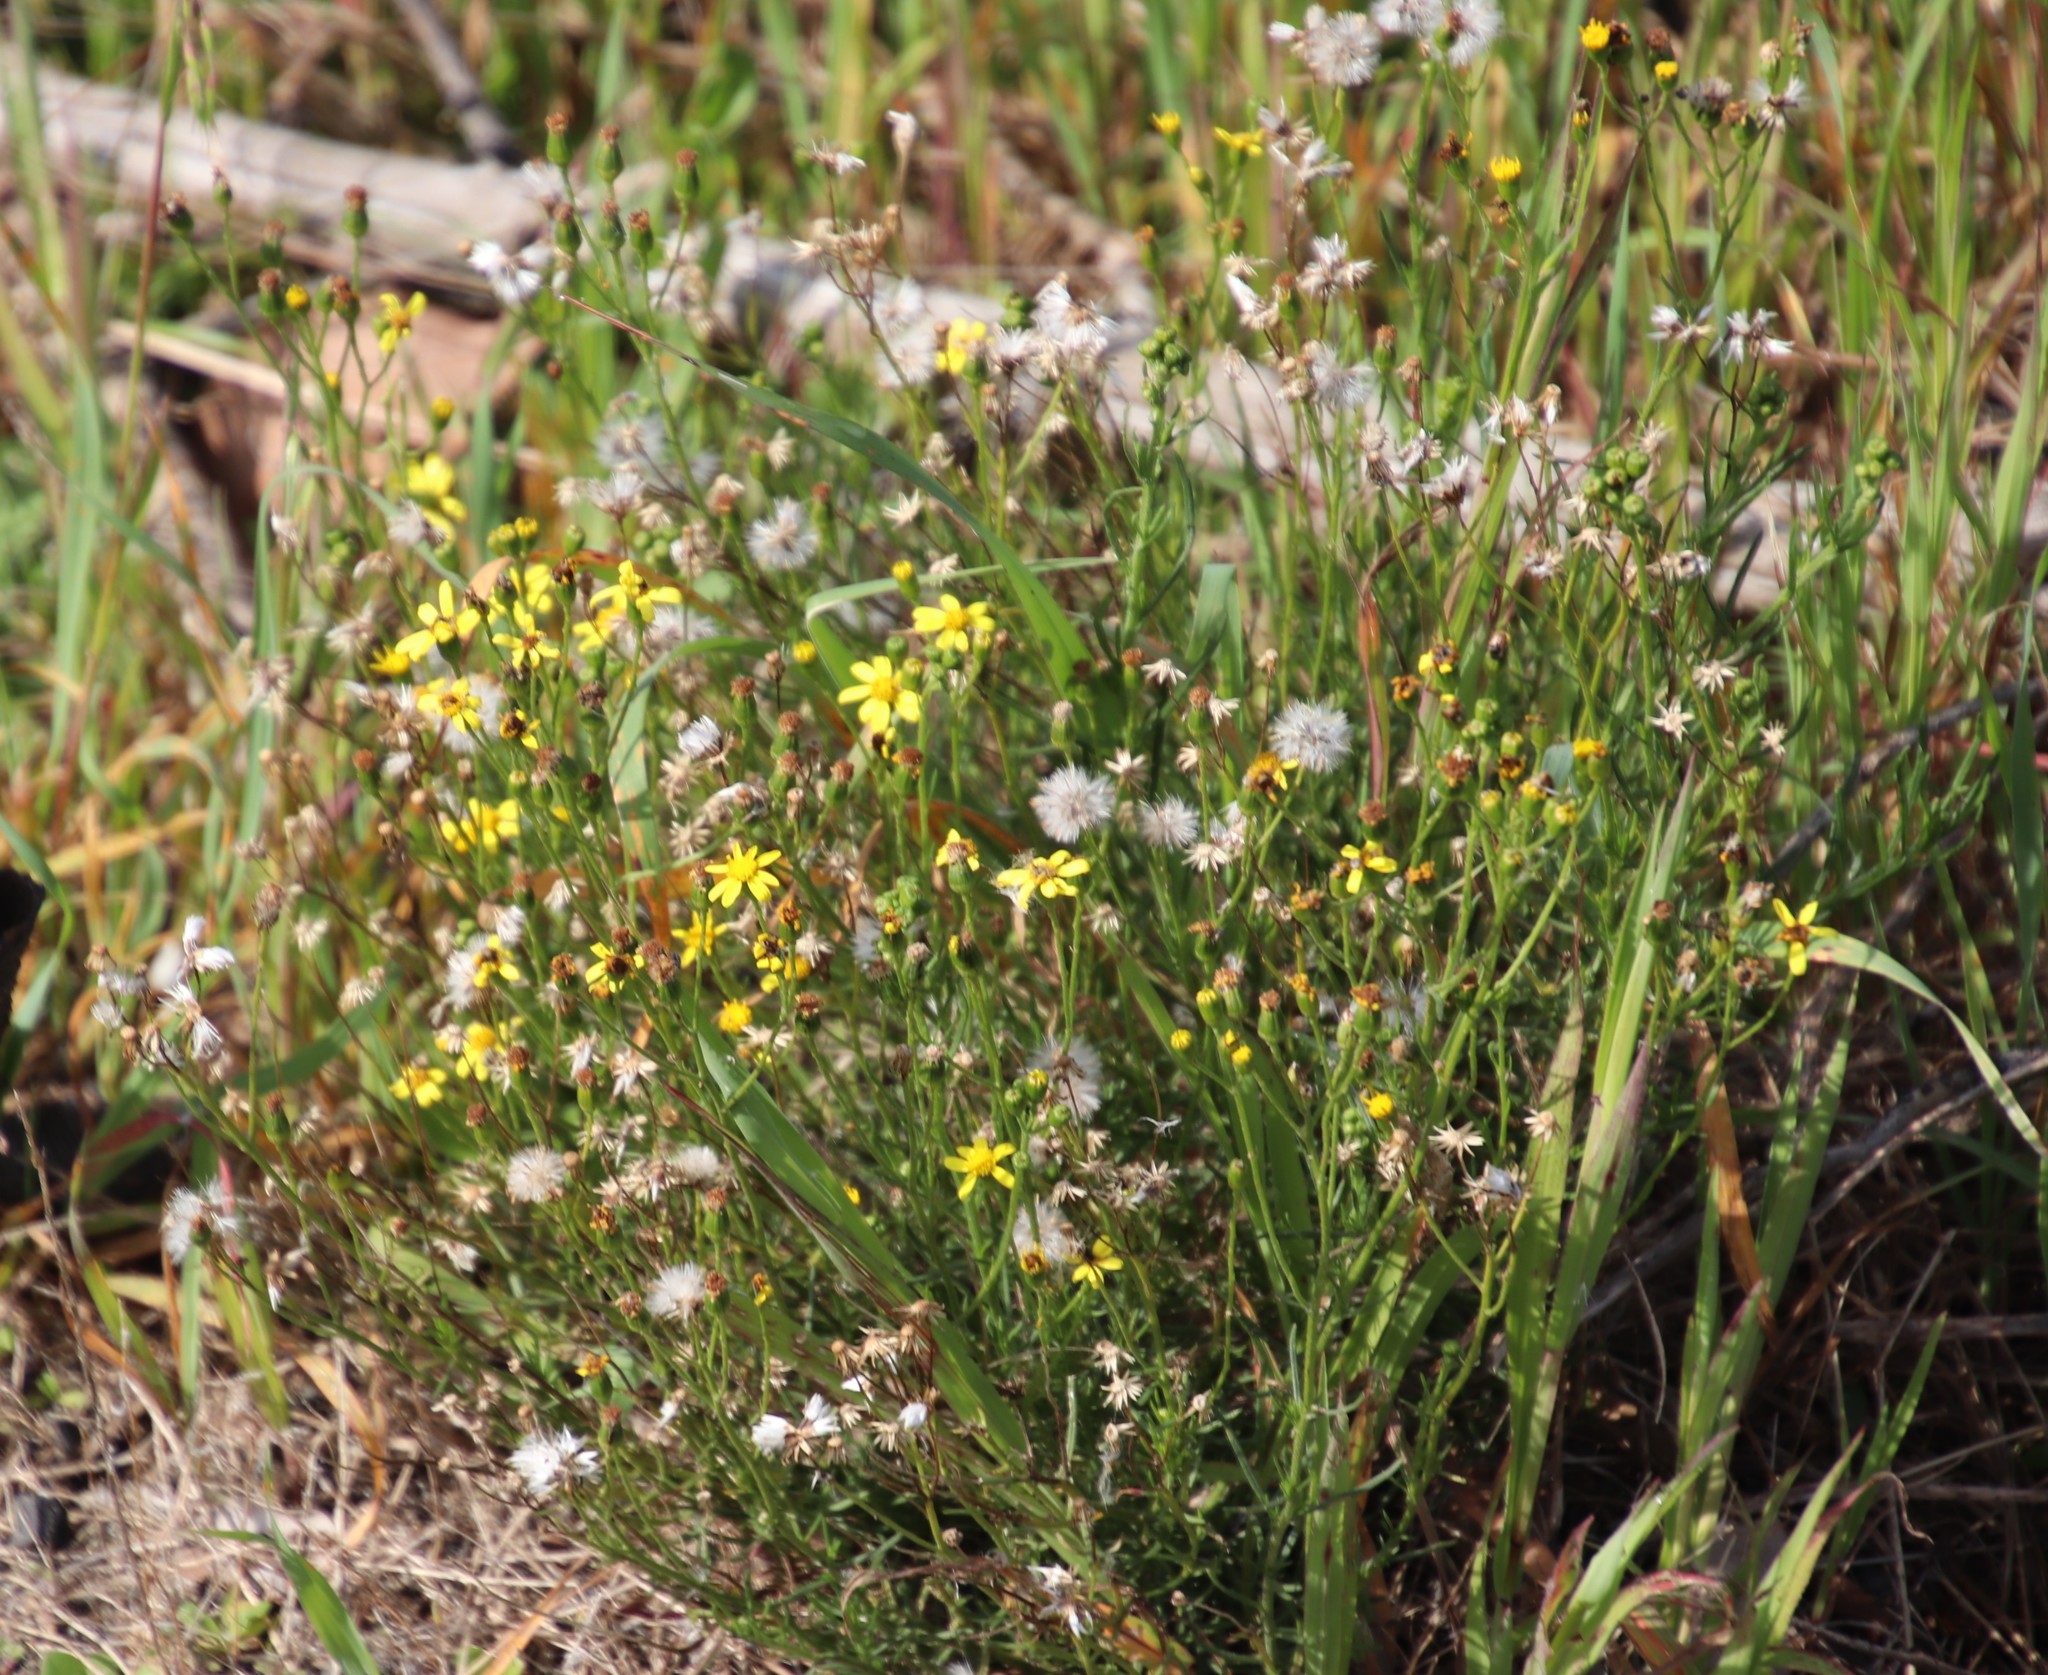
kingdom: Plantae
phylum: Tracheophyta
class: Magnoliopsida
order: Asterales
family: Asteraceae
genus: Senecio
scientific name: Senecio burchellii
